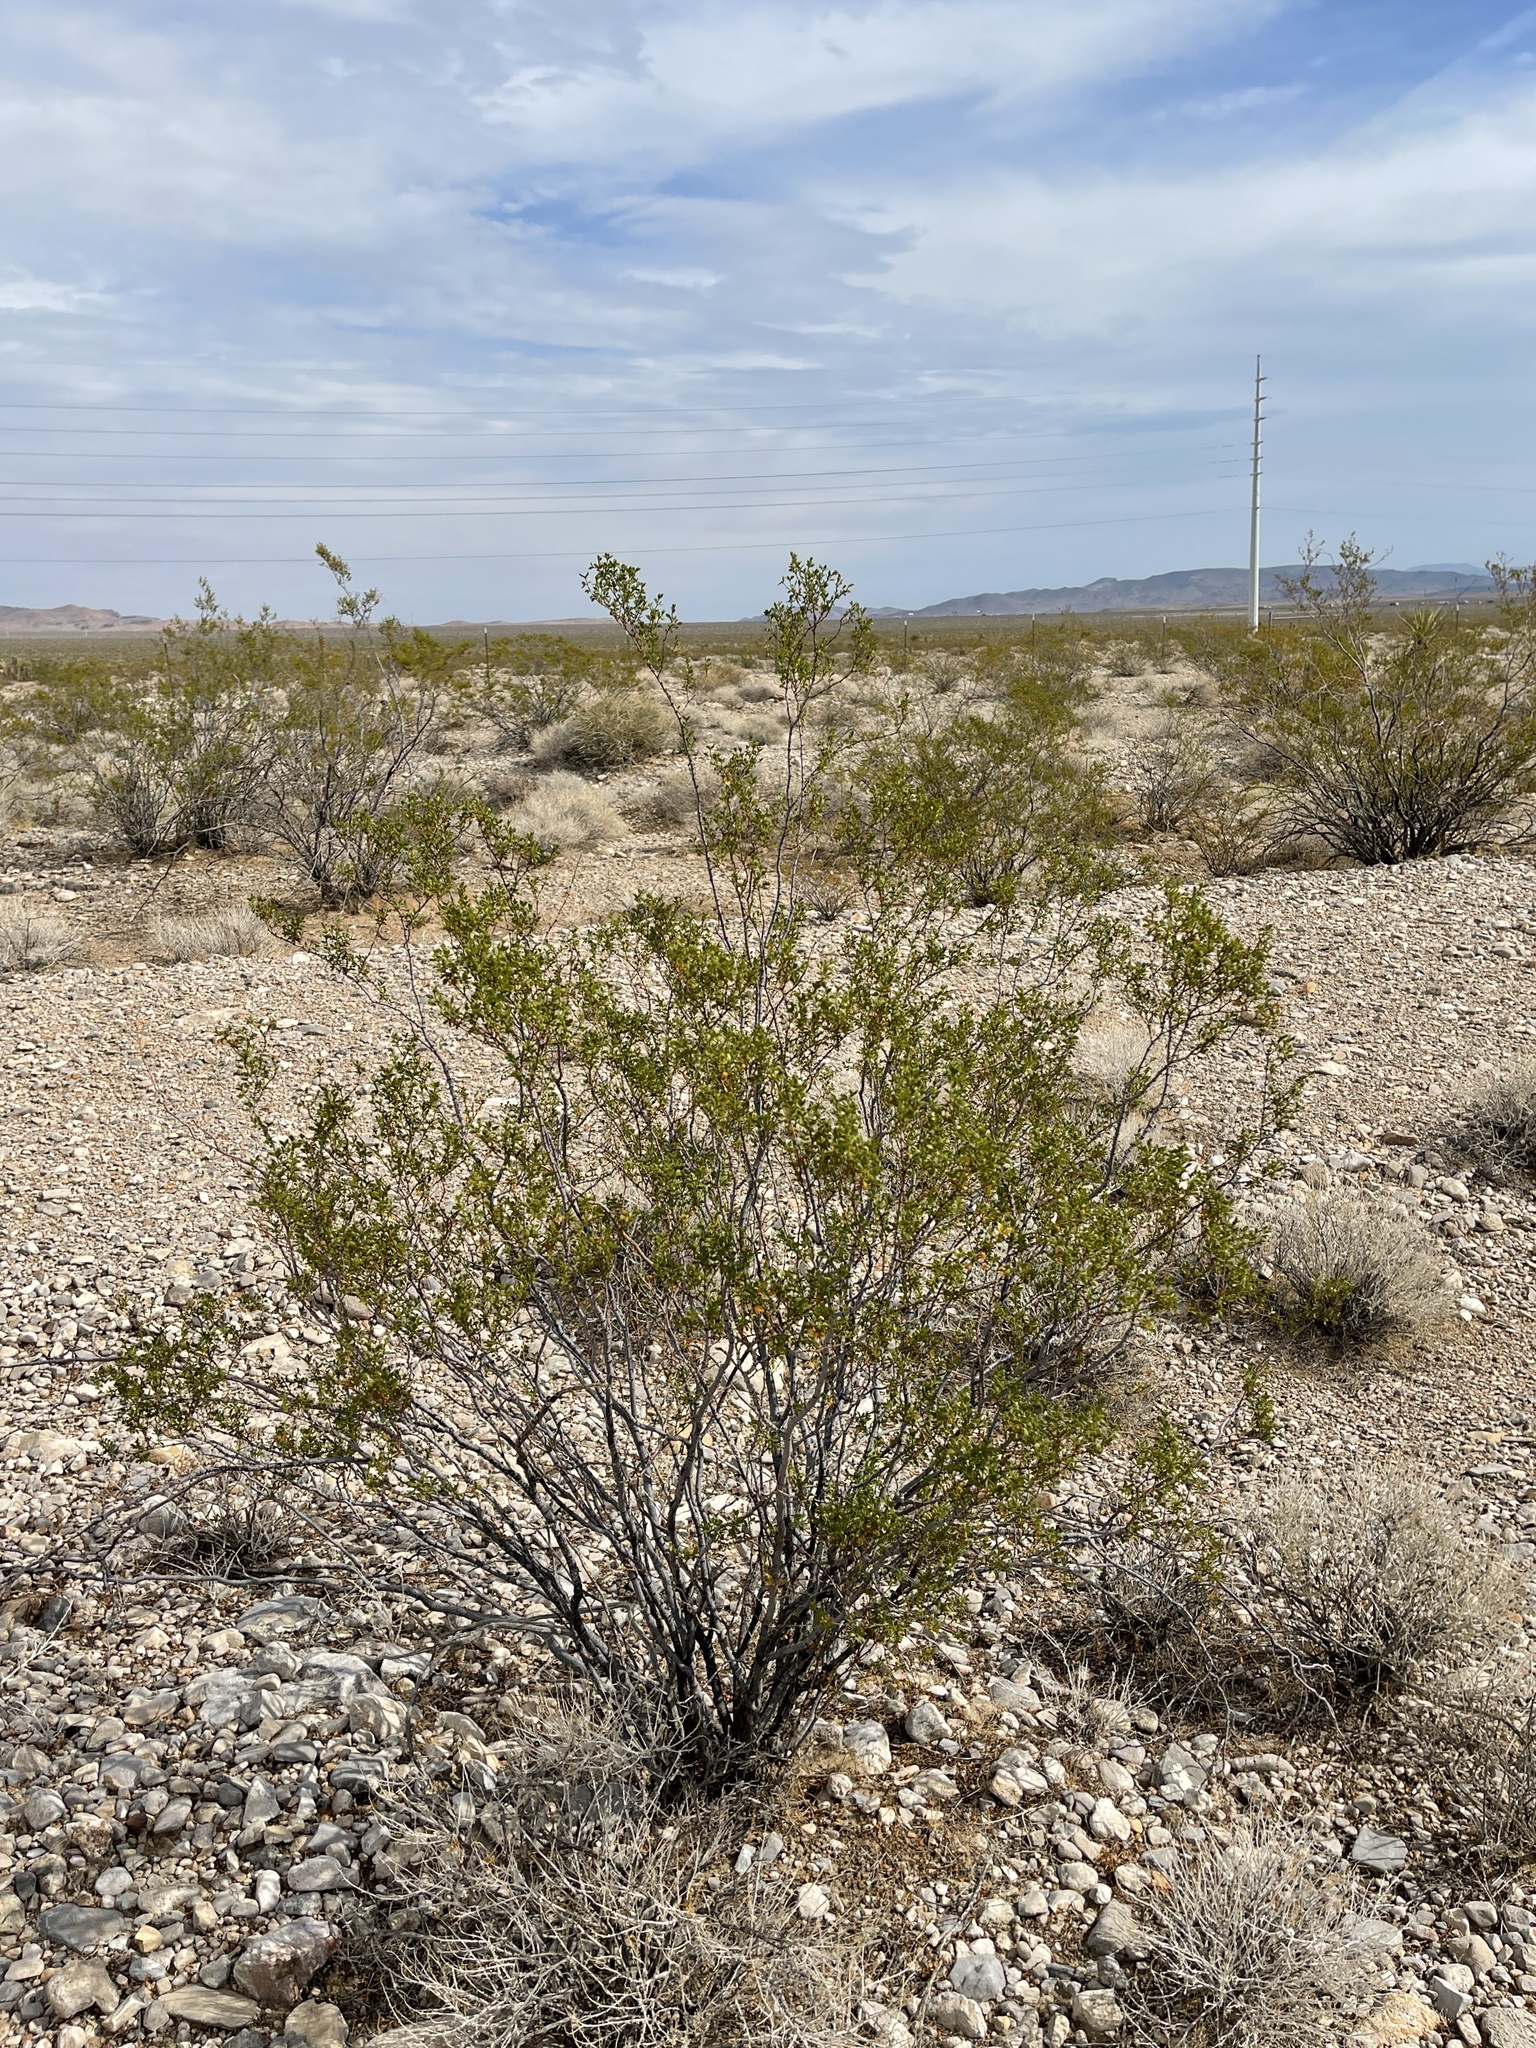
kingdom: Plantae
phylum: Tracheophyta
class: Magnoliopsida
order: Zygophyllales
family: Zygophyllaceae
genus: Larrea
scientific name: Larrea tridentata
